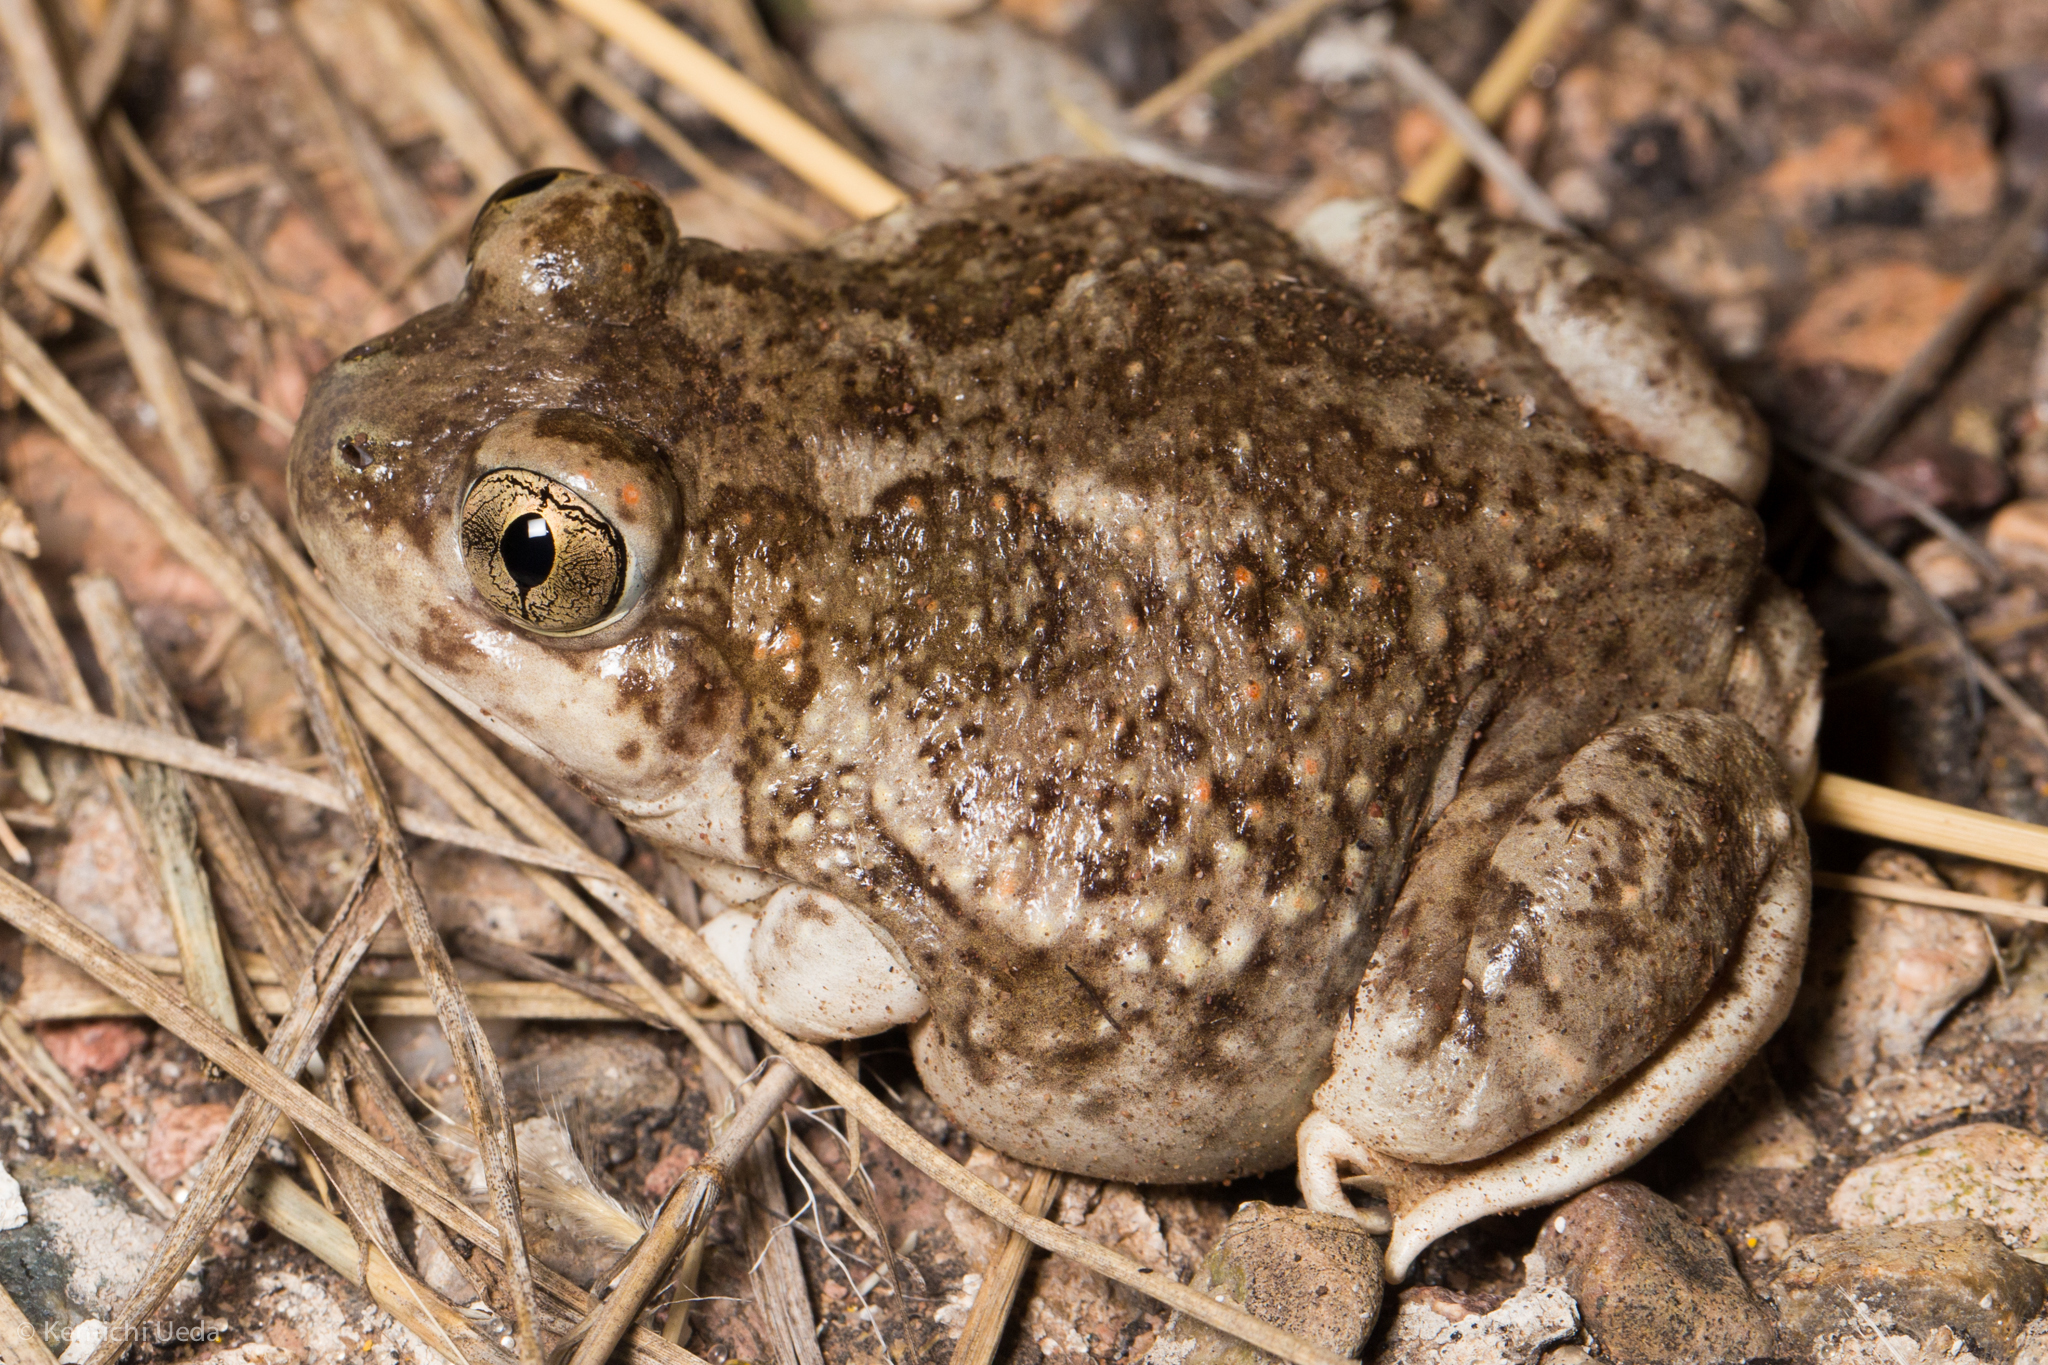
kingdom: Animalia
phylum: Chordata
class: Amphibia
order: Anura
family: Scaphiopodidae
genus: Spea
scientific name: Spea multiplicata
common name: Mexican spadefoot
